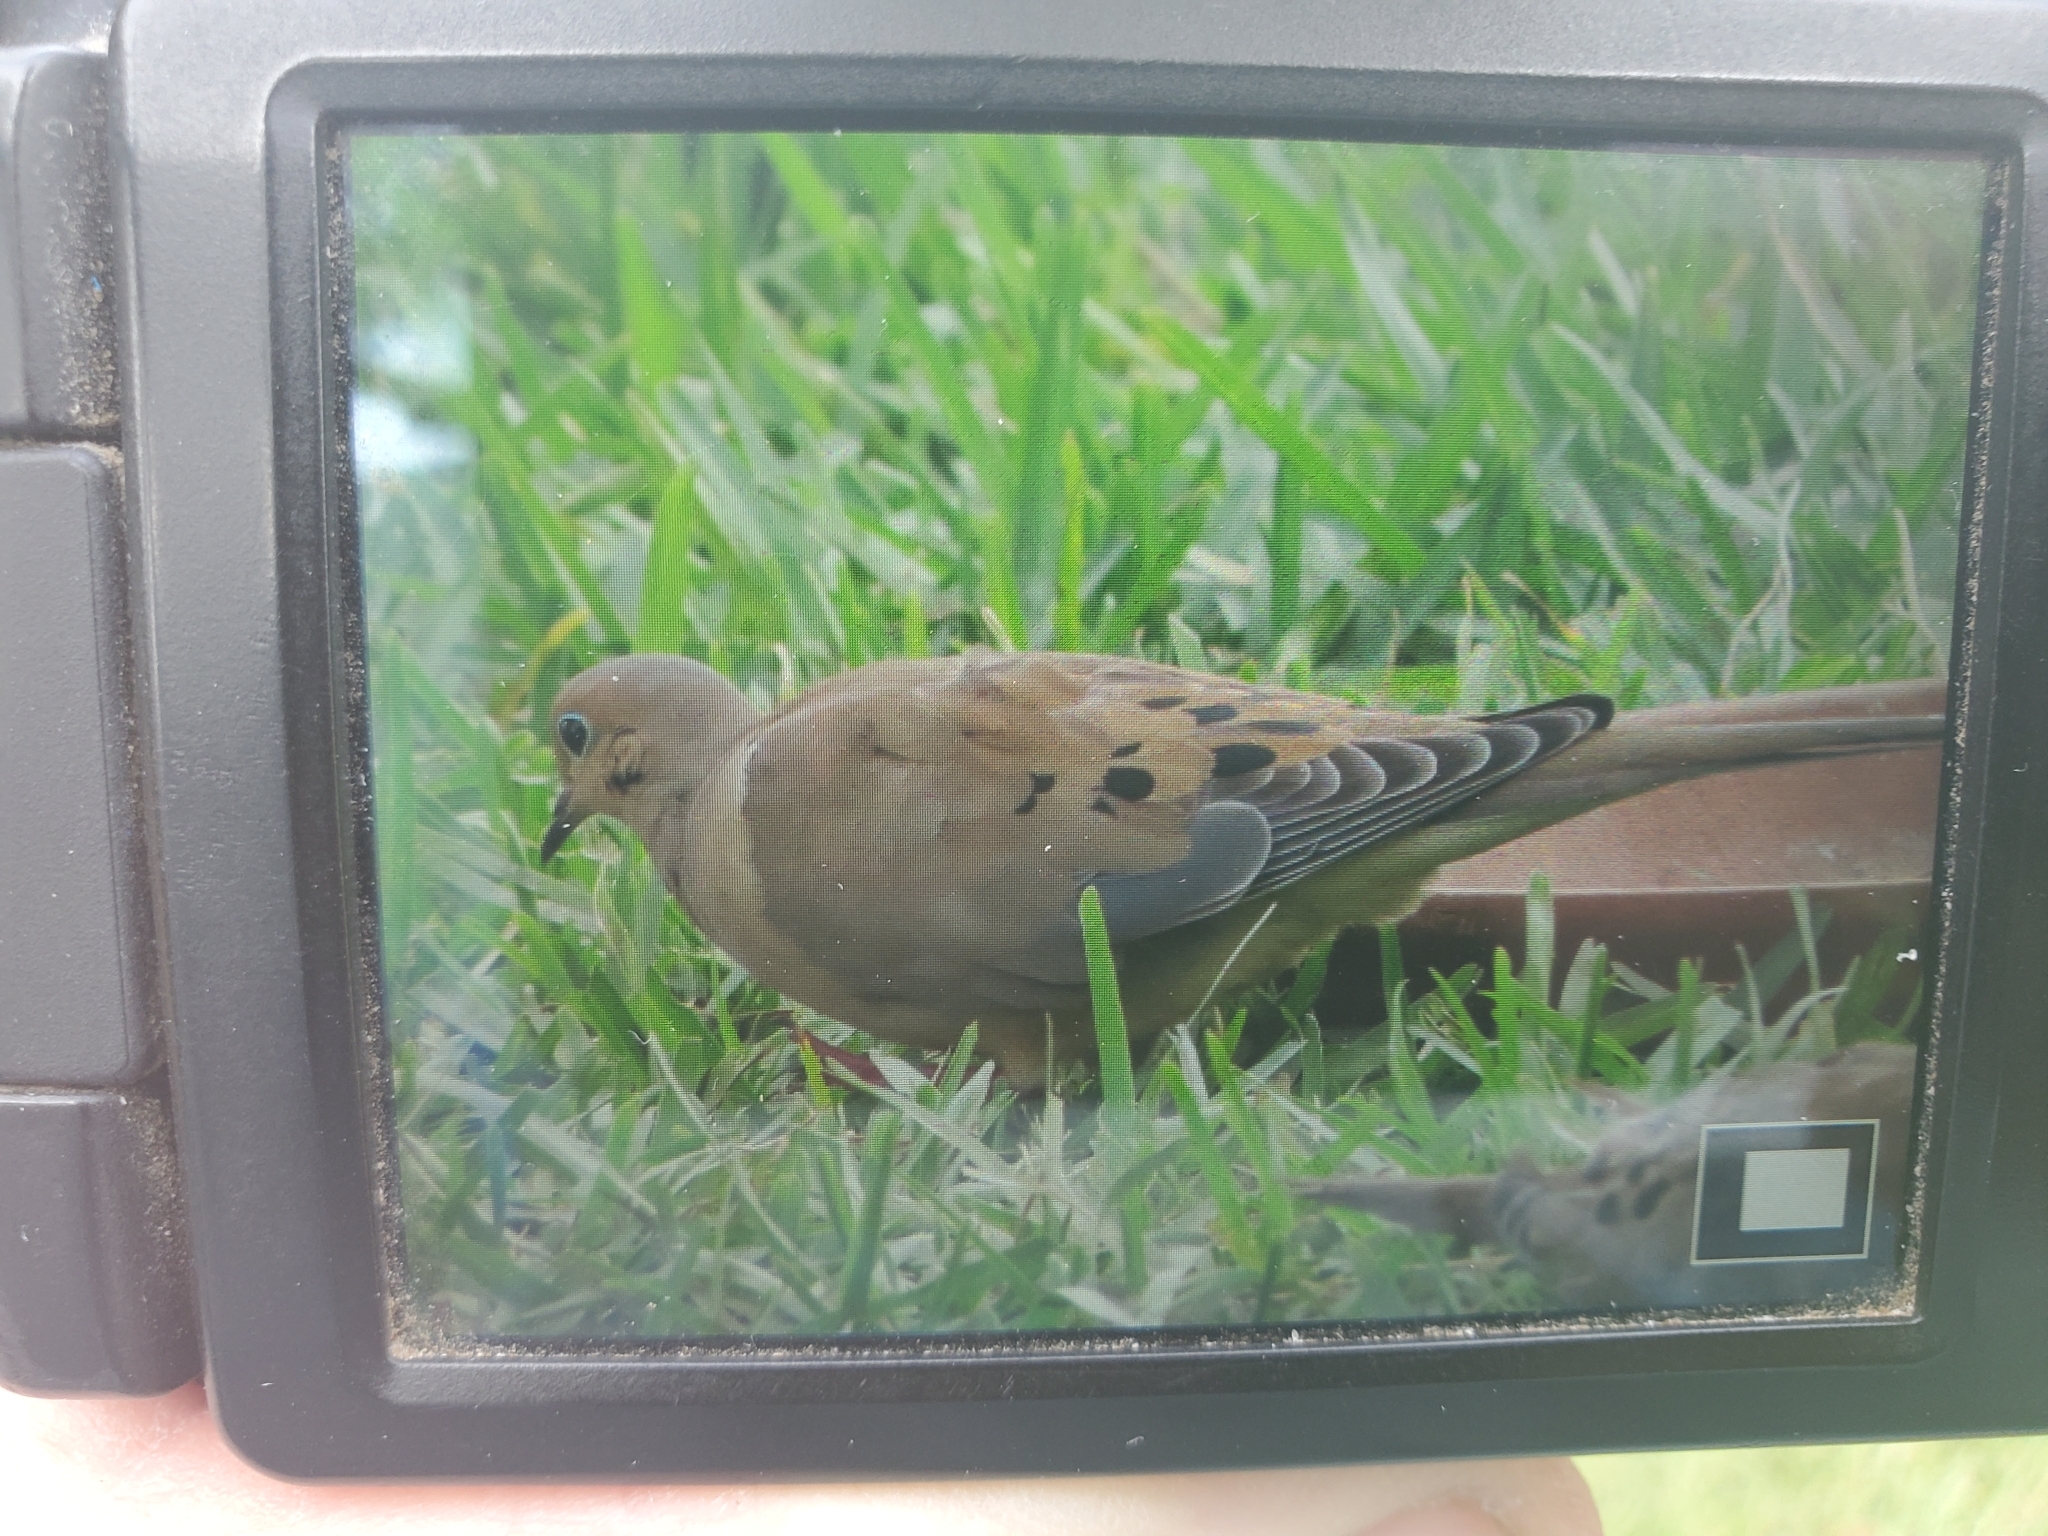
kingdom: Animalia
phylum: Chordata
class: Aves
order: Columbiformes
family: Columbidae
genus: Zenaida
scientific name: Zenaida macroura
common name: Mourning dove
